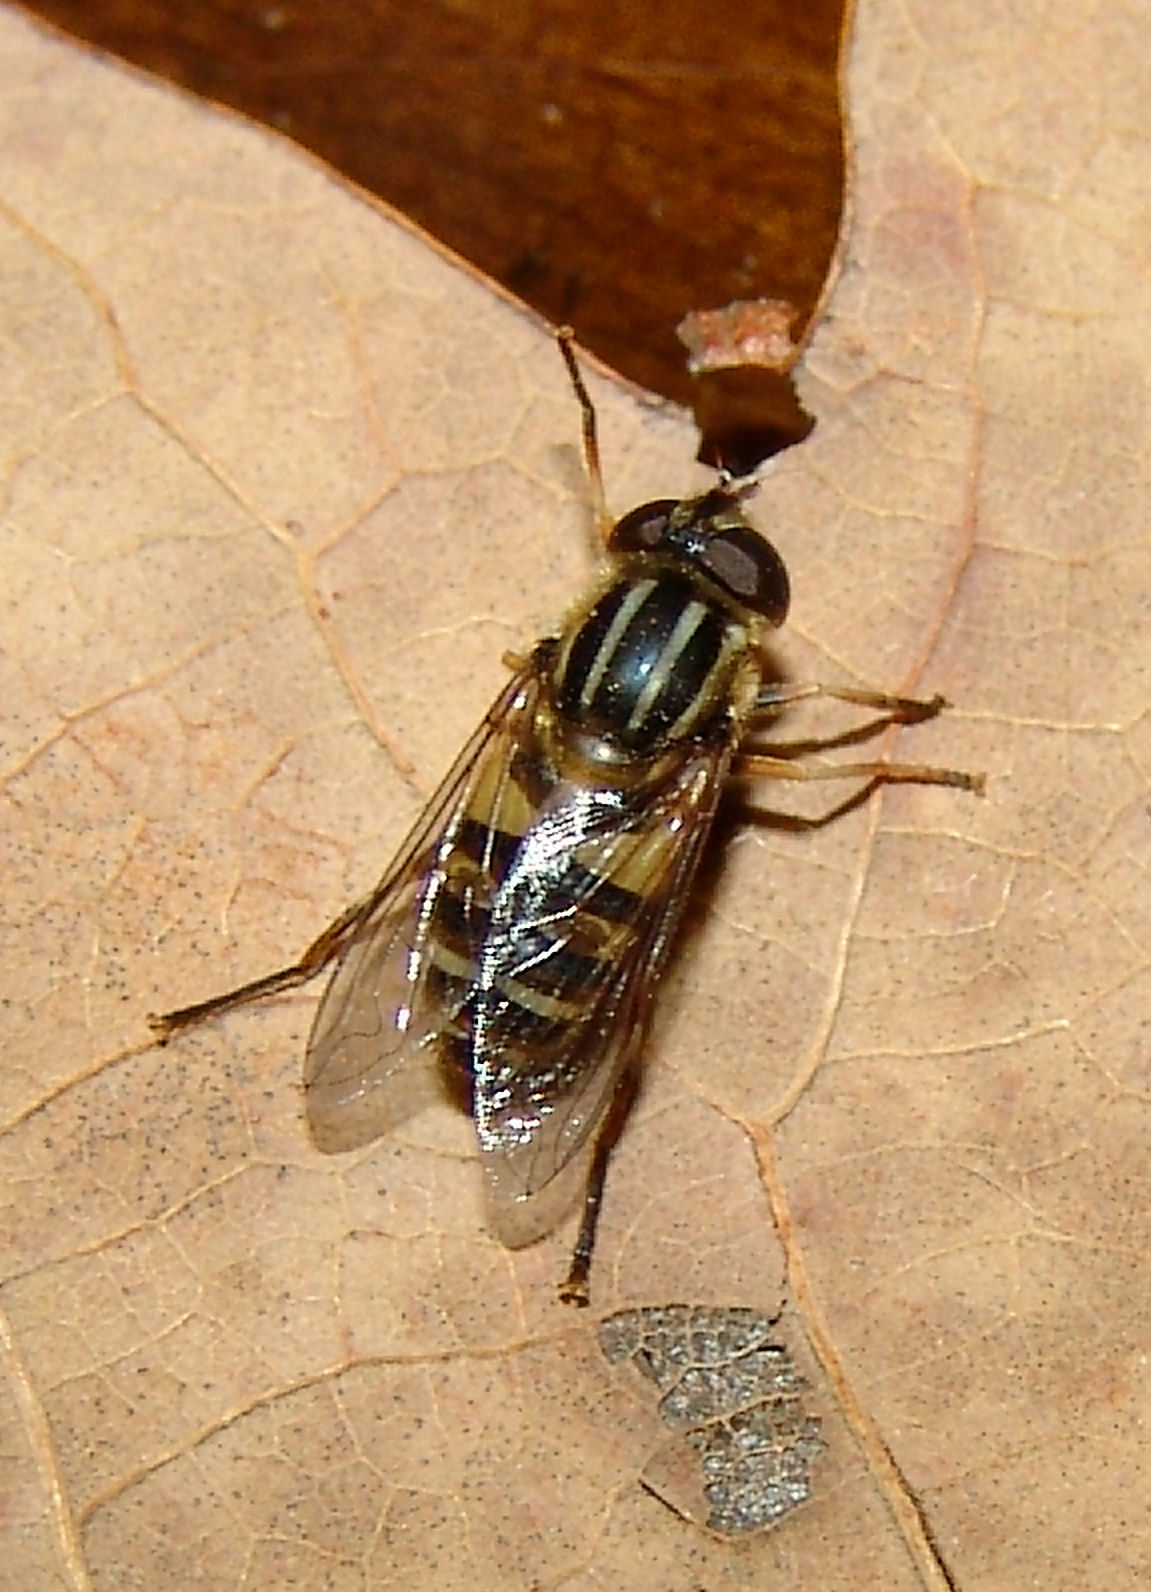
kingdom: Animalia
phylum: Arthropoda
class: Insecta
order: Diptera
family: Syrphidae
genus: Helophilus
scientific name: Helophilus fasciatus
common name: Narrow-headed marsh fly
